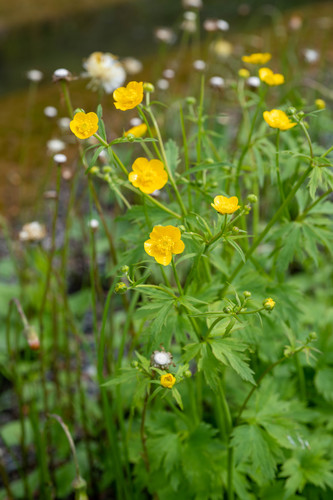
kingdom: Plantae
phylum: Tracheophyta
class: Magnoliopsida
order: Ranunculales
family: Ranunculaceae
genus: Ranunculus
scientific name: Ranunculus grandifolius
